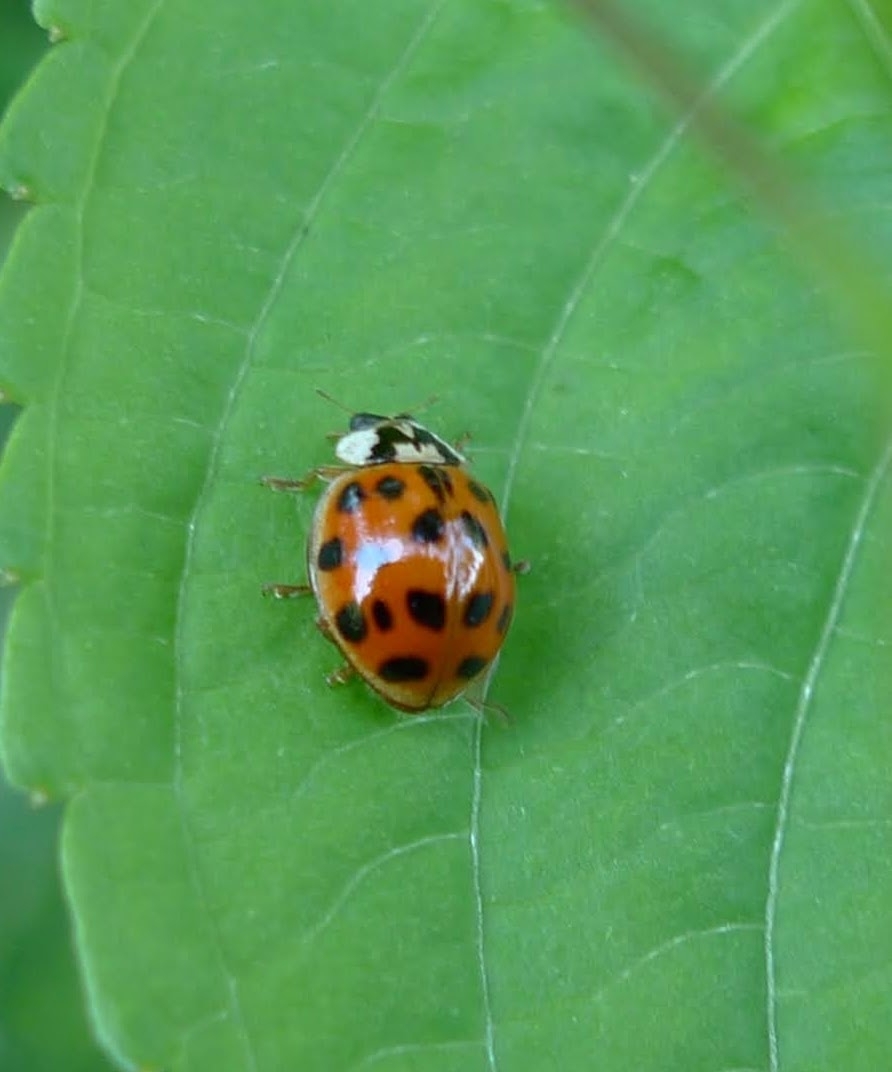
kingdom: Animalia
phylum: Arthropoda
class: Insecta
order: Coleoptera
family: Coccinellidae
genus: Harmonia
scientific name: Harmonia axyridis
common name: Harlequin ladybird
